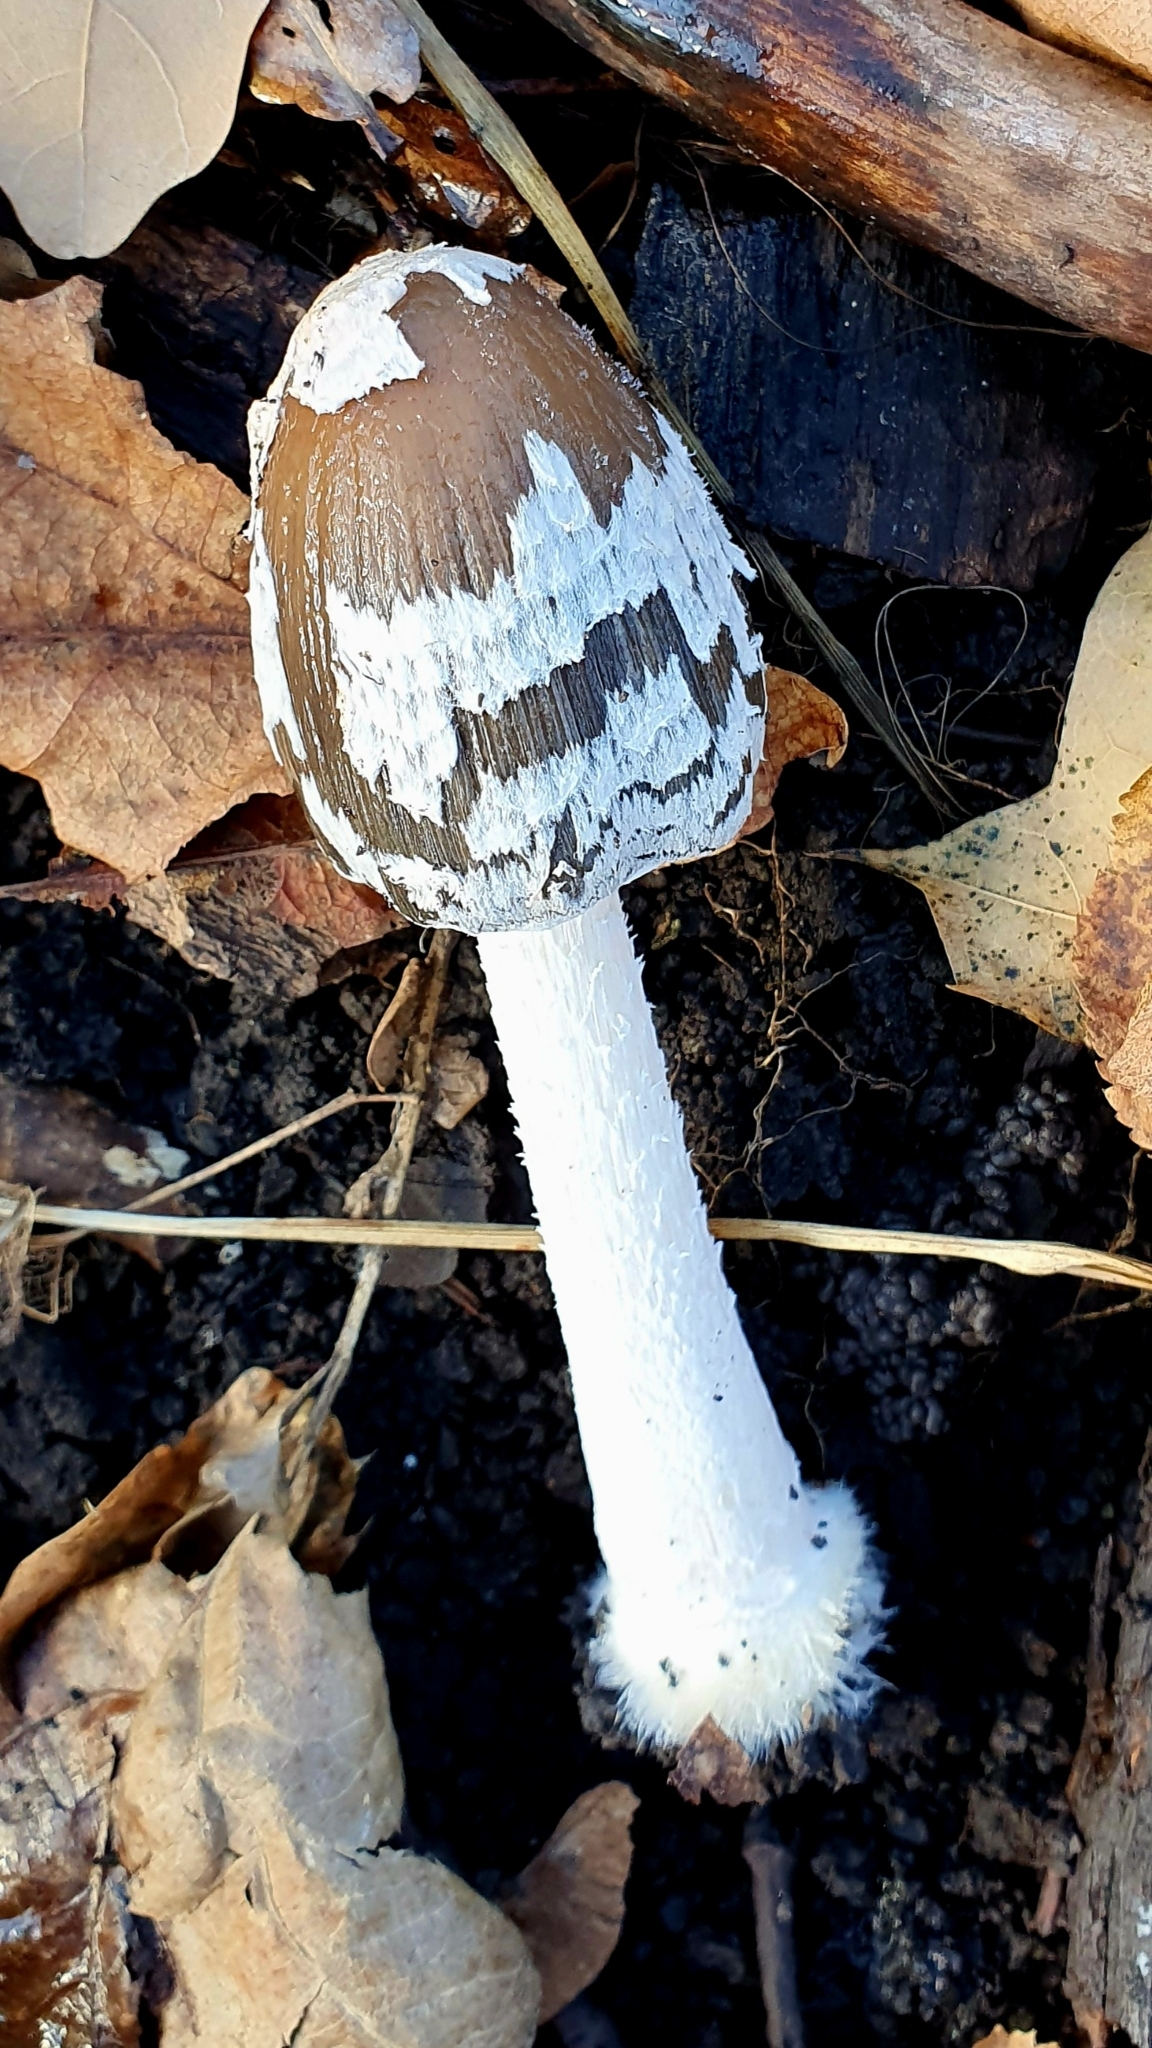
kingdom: Fungi
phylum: Basidiomycota
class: Agaricomycetes
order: Agaricales
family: Psathyrellaceae
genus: Coprinopsis
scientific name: Coprinopsis picacea
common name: Magpie inkcap
